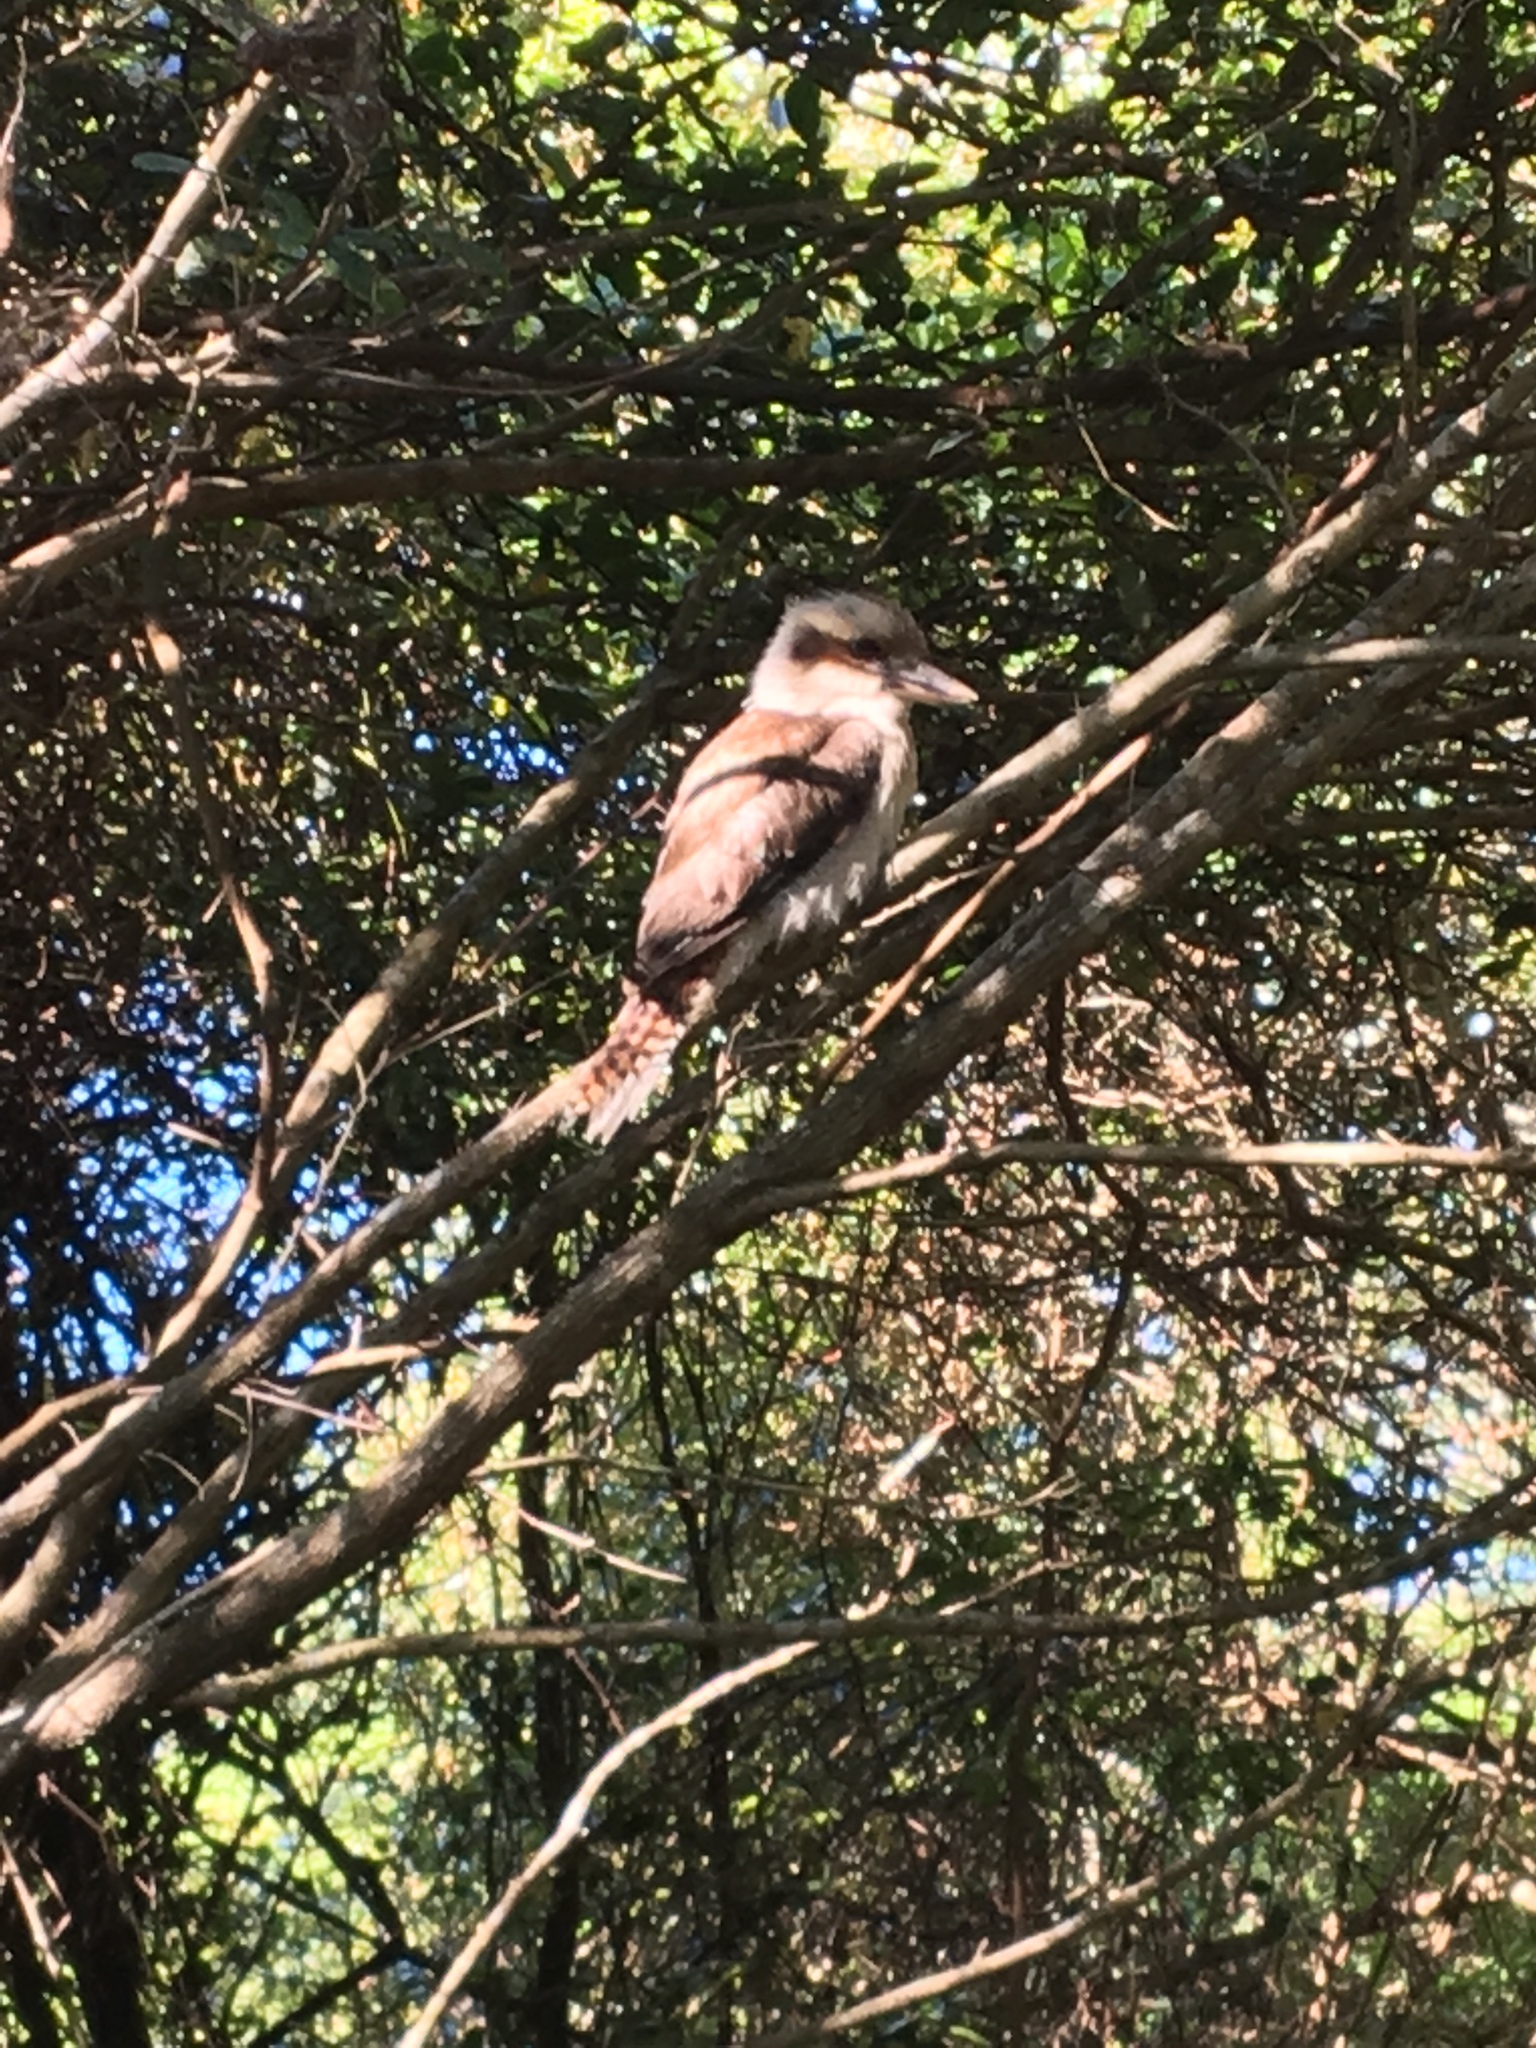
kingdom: Animalia
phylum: Chordata
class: Aves
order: Coraciiformes
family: Alcedinidae
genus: Dacelo
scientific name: Dacelo novaeguineae
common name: Laughing kookaburra
